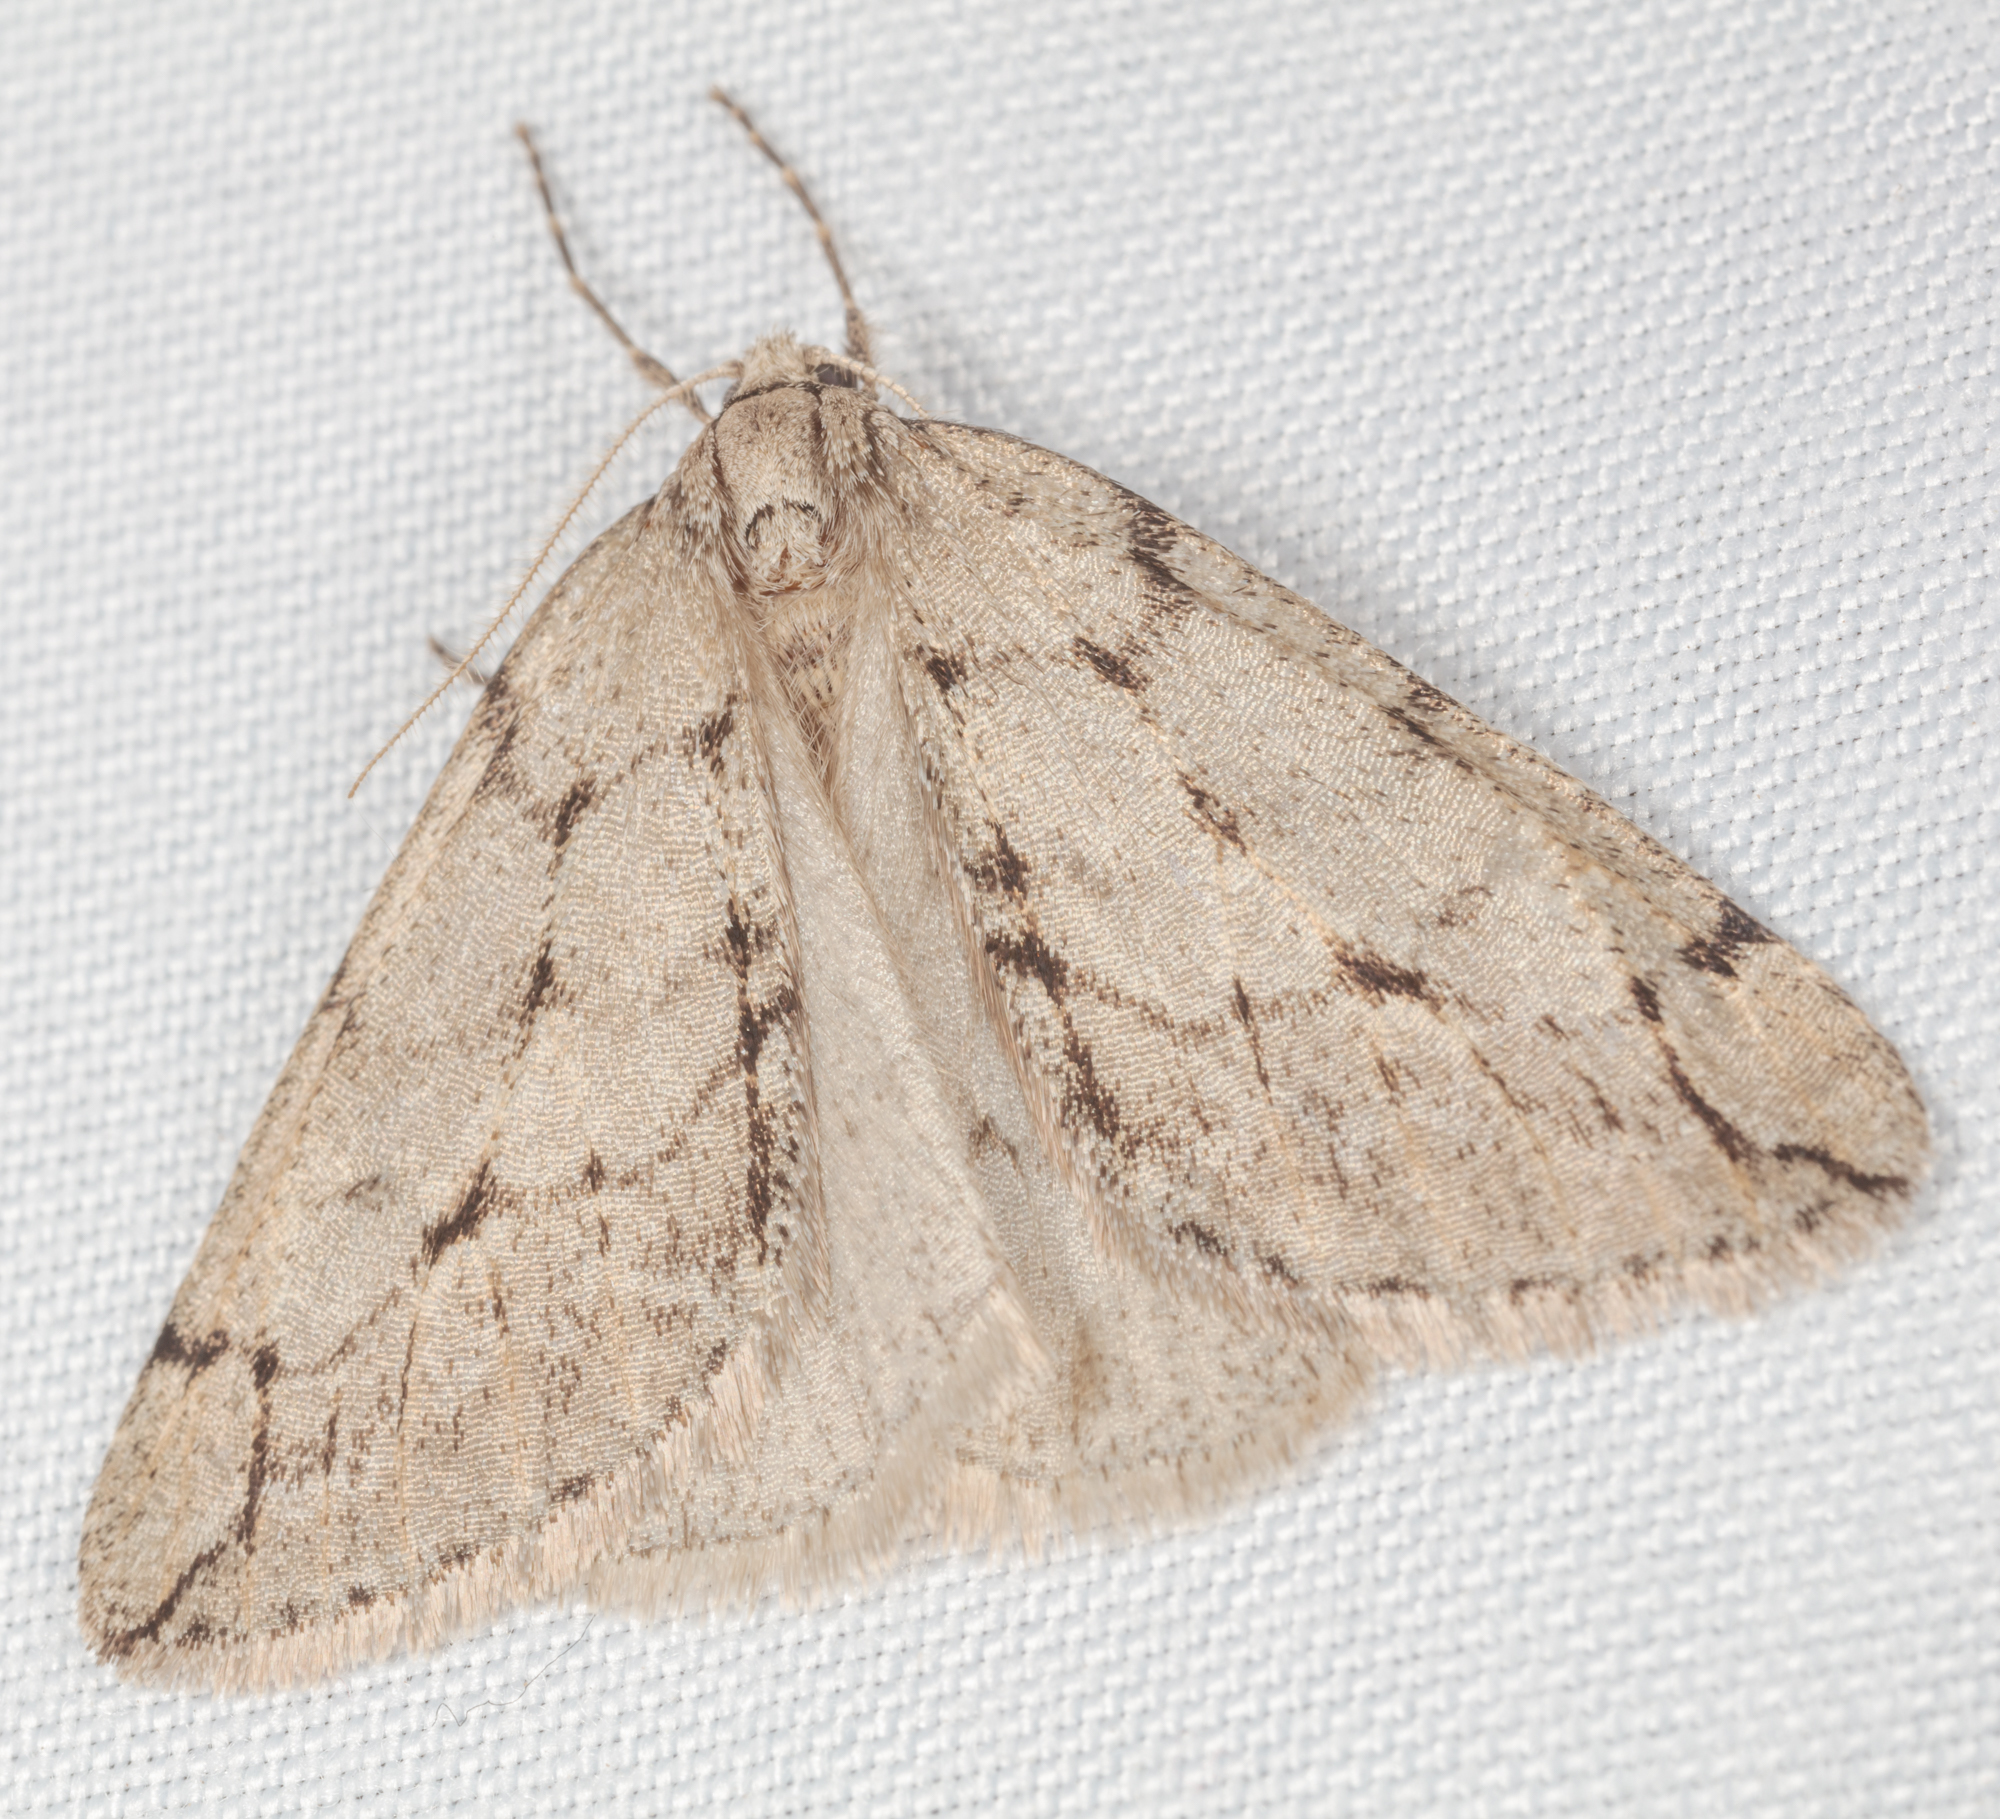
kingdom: Animalia
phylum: Arthropoda
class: Insecta
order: Lepidoptera
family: Geometridae
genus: Paleacrita
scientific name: Paleacrita vernata
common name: Spring cankerworm
